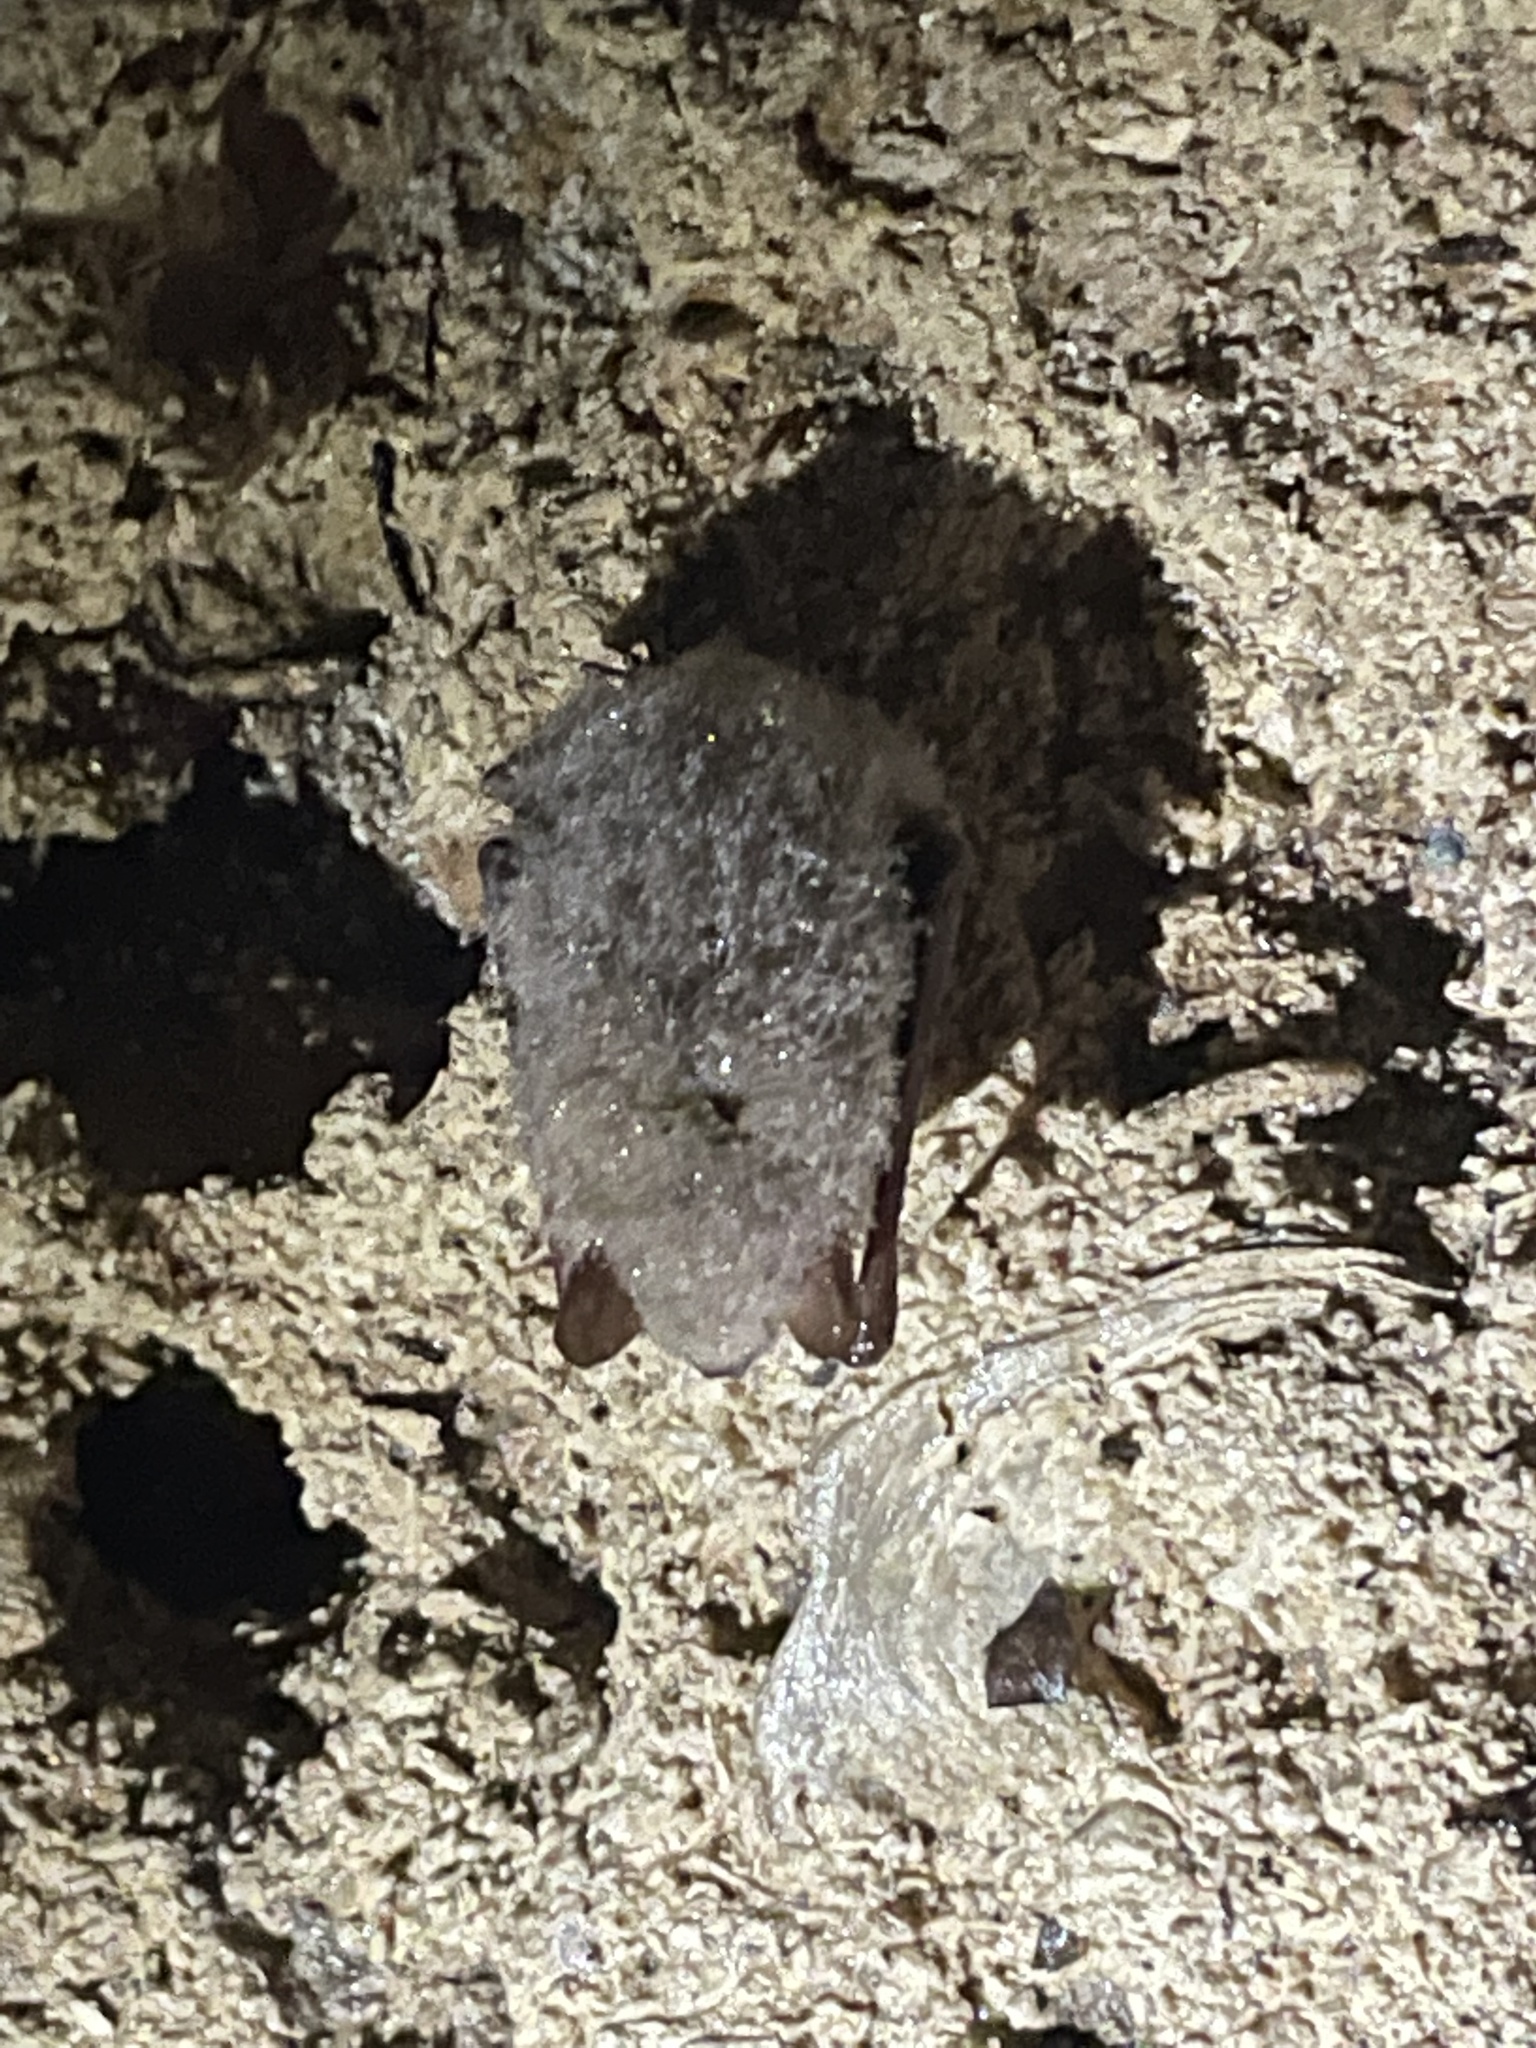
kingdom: Animalia
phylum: Chordata
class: Mammalia
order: Chiroptera
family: Vespertilionidae
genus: Perimyotis
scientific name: Perimyotis subflavus
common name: Eastern pipistrelle
